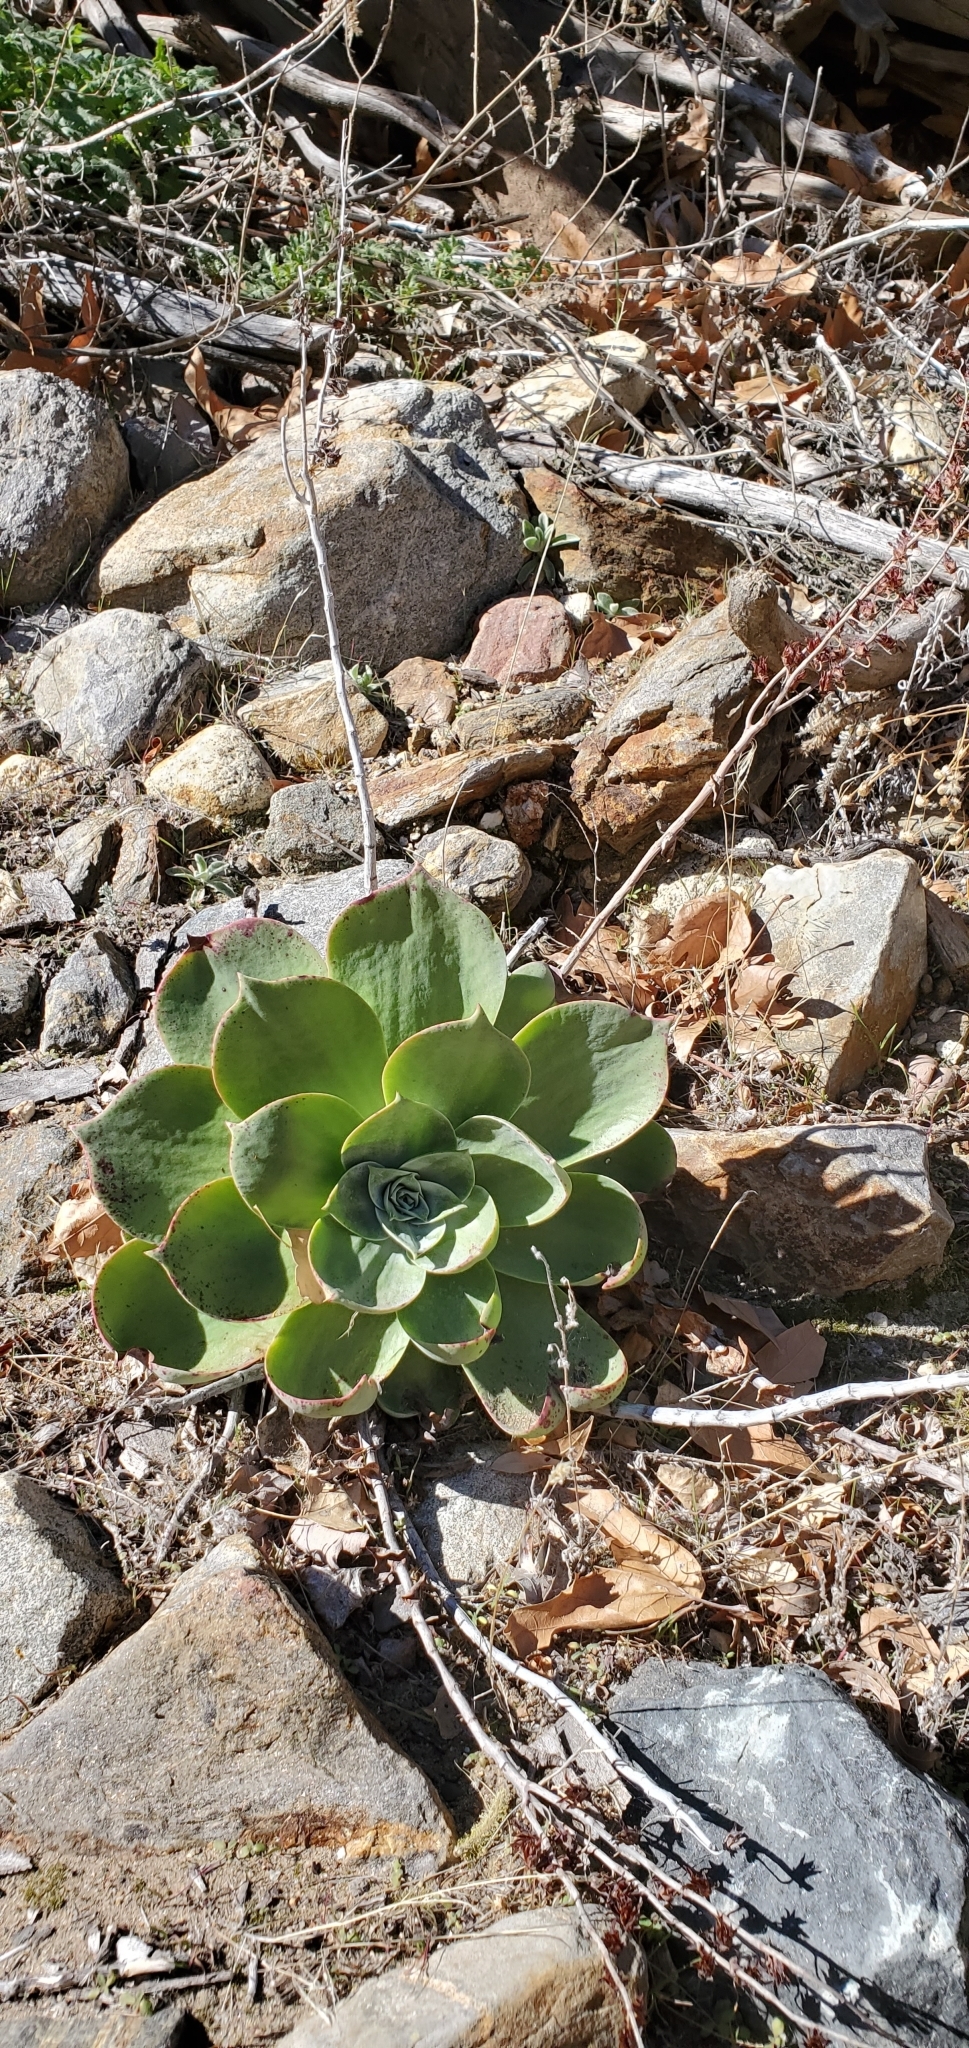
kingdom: Plantae
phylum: Tracheophyta
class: Magnoliopsida
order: Saxifragales
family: Crassulaceae
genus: Dudleya
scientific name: Dudleya arizonica
